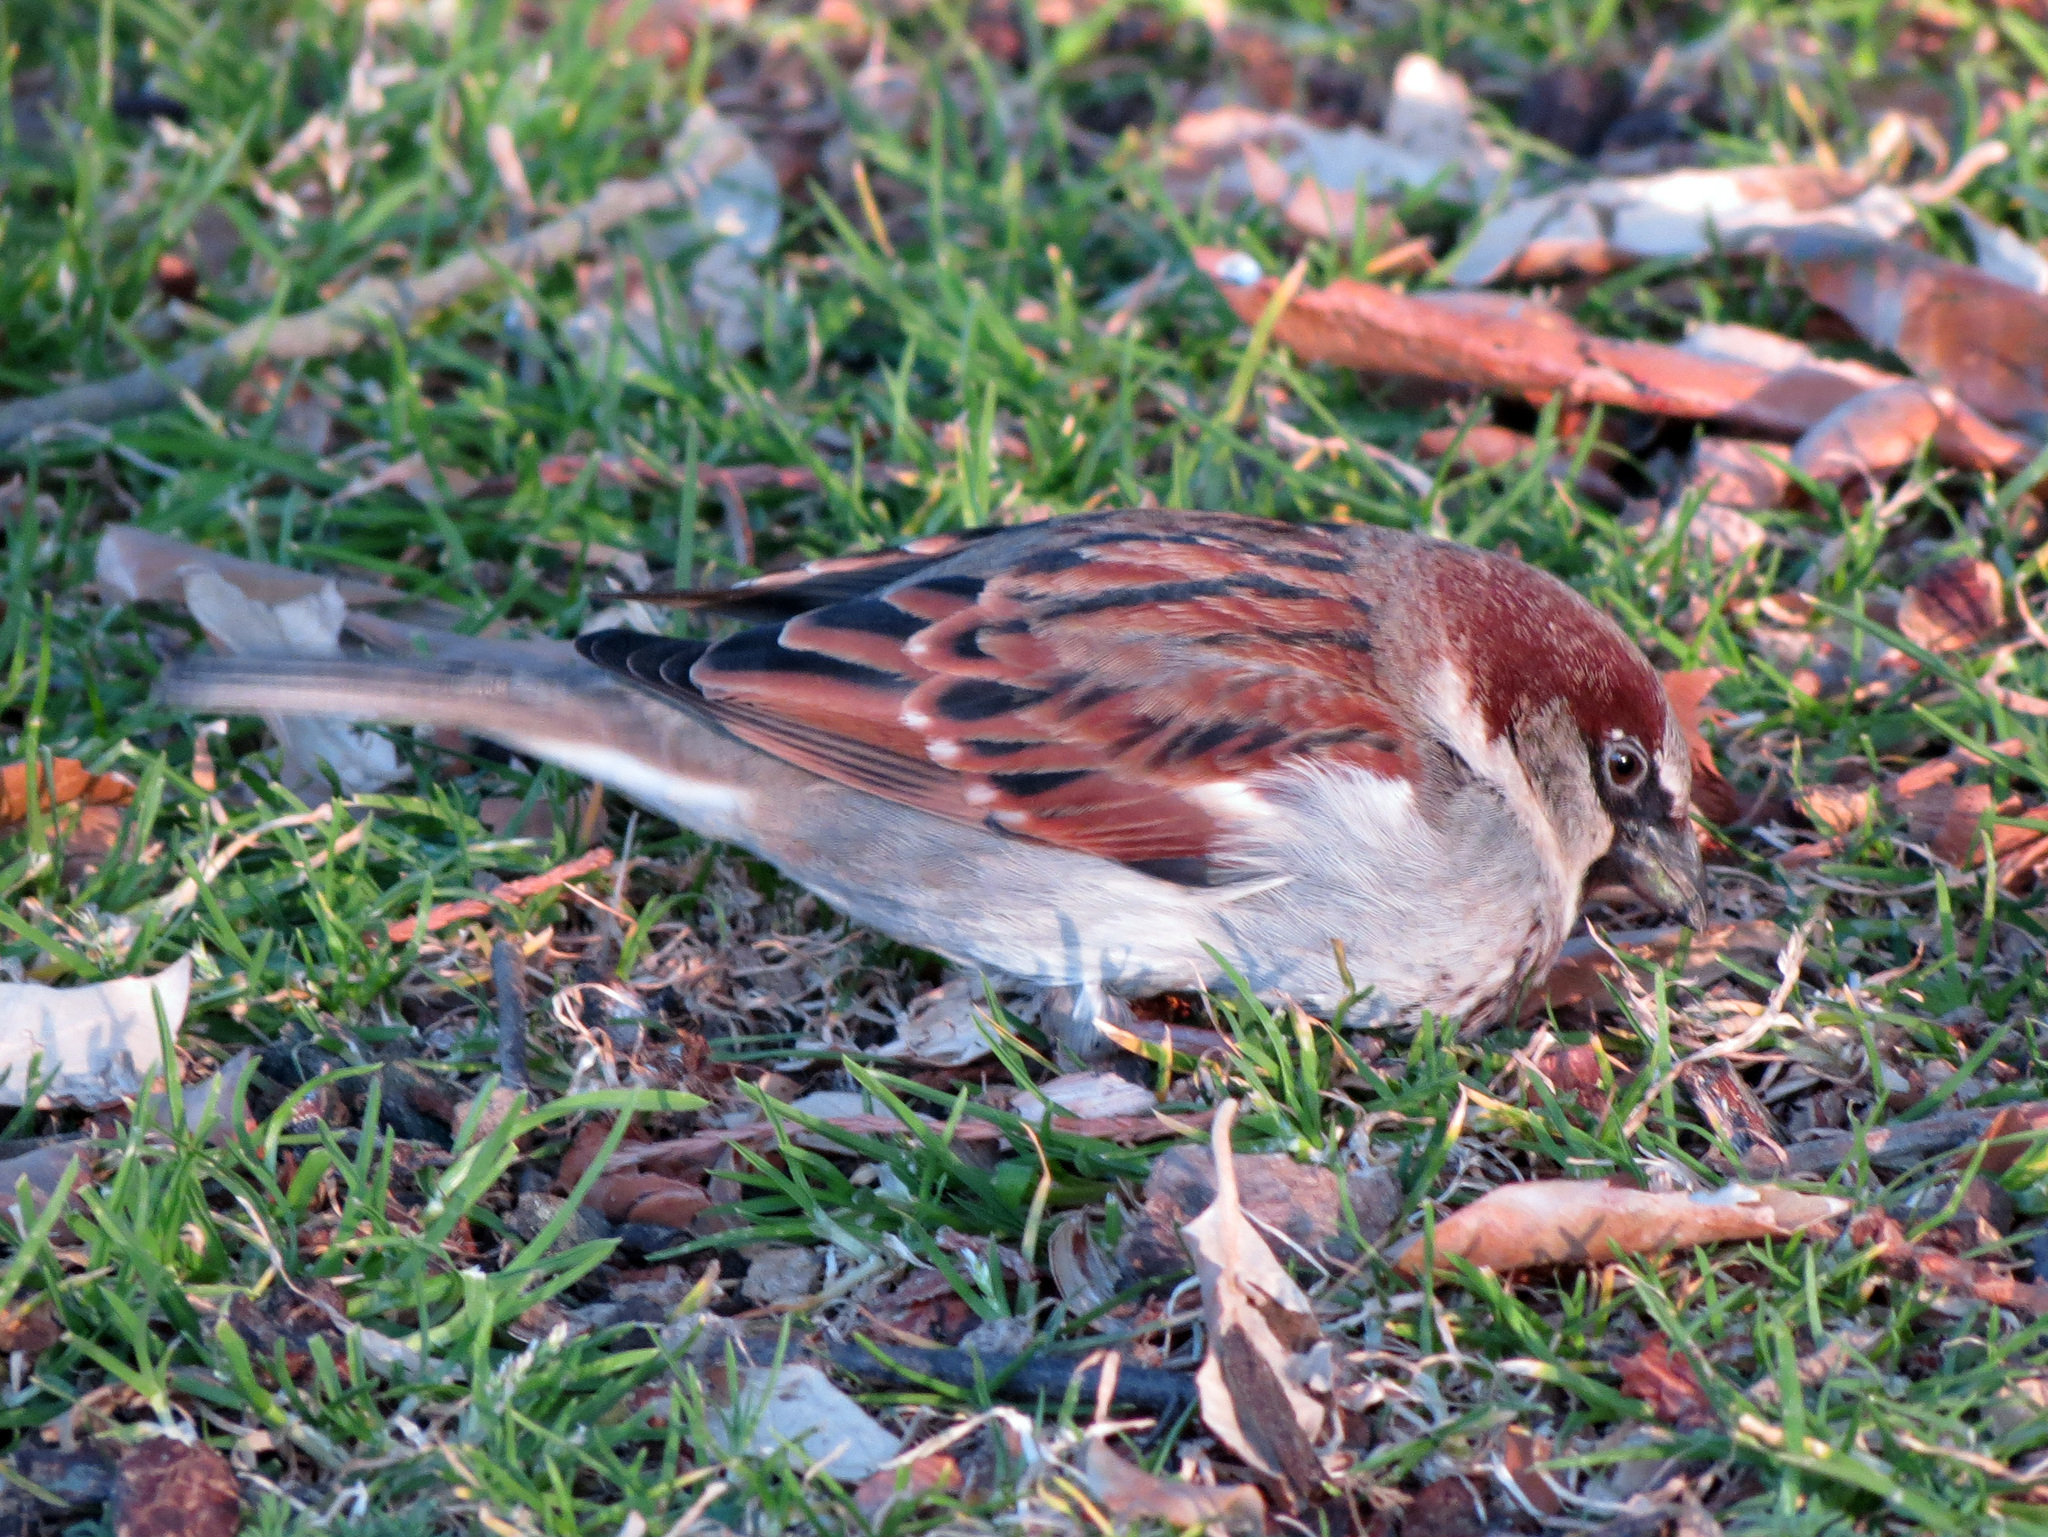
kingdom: Animalia
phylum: Chordata
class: Aves
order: Passeriformes
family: Passeridae
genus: Passer
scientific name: Passer domesticus
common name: House sparrow
